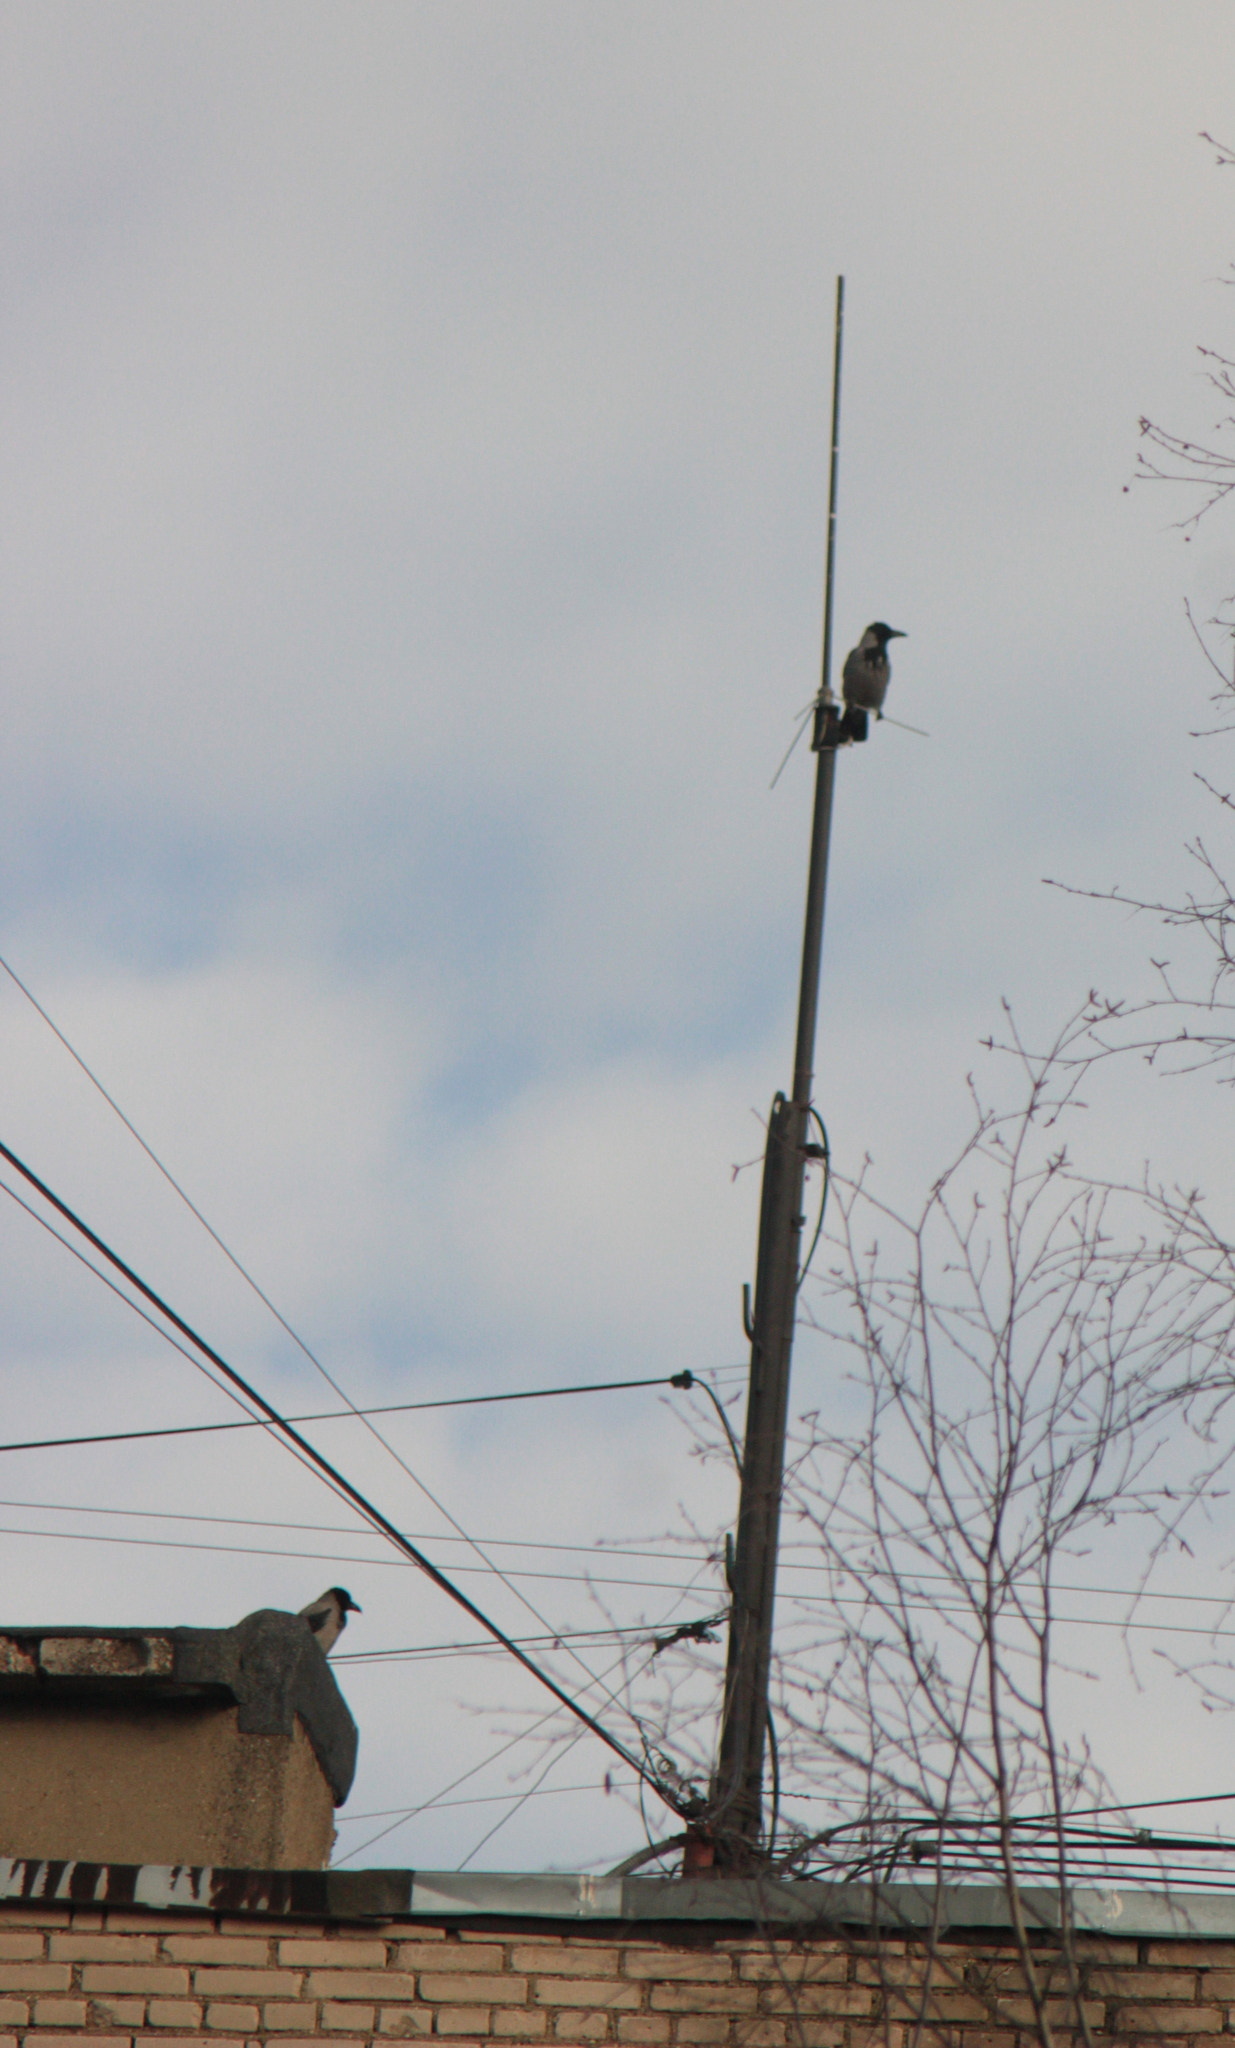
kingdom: Animalia
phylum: Chordata
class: Aves
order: Passeriformes
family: Corvidae
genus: Corvus
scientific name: Corvus cornix
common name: Hooded crow
